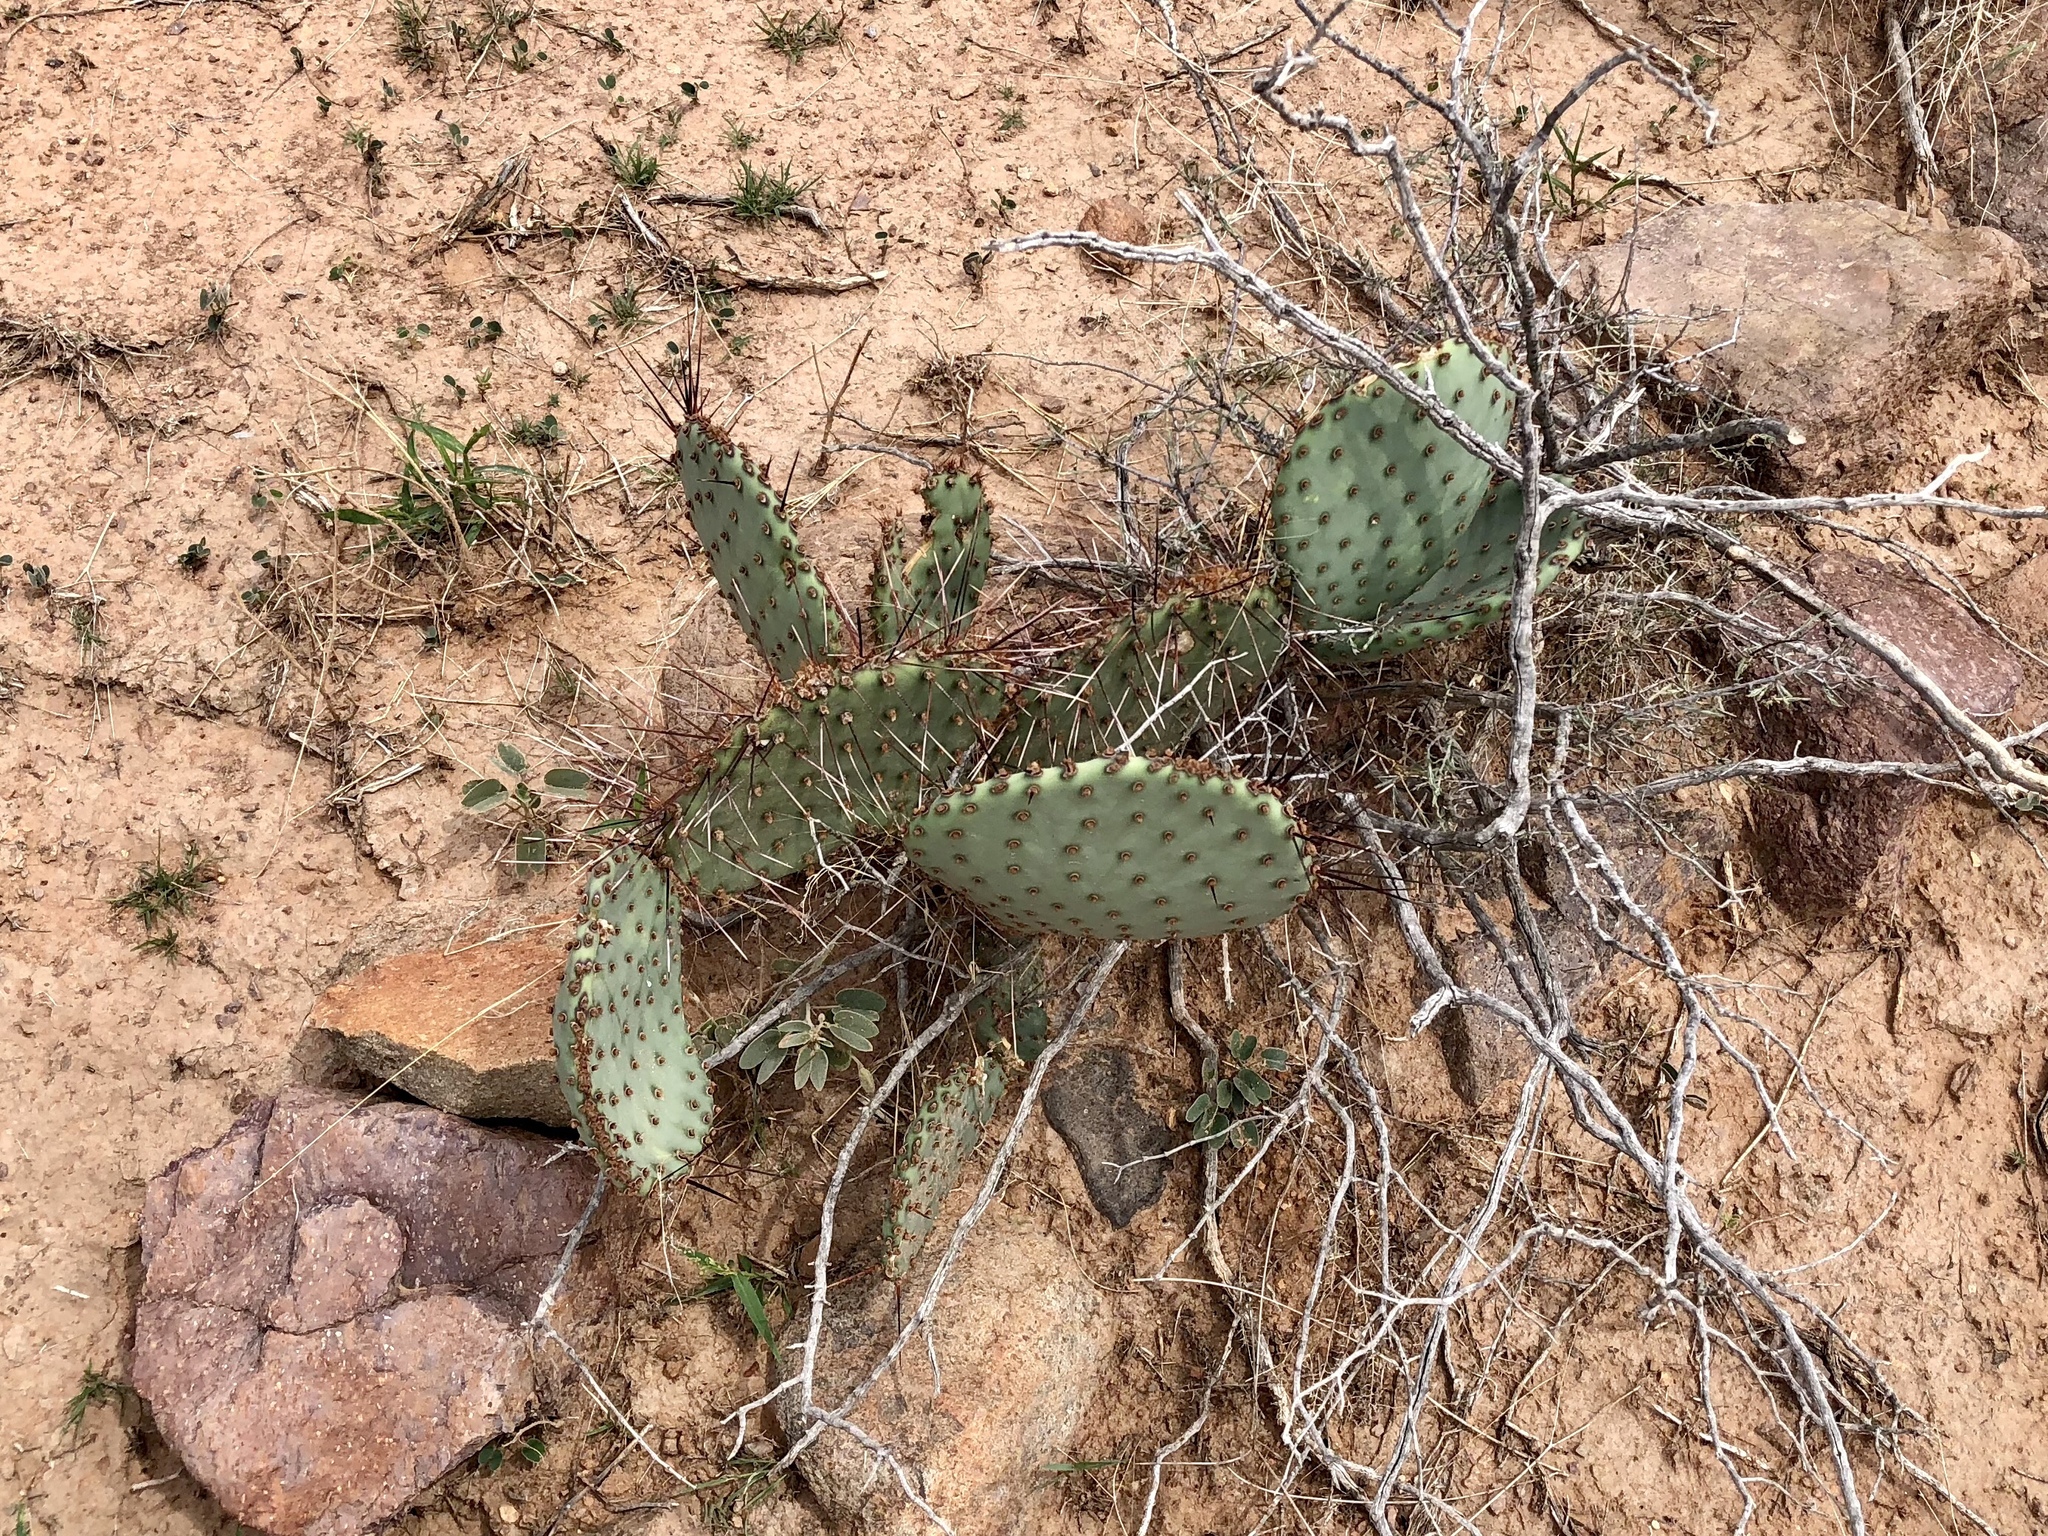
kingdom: Plantae
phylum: Tracheophyta
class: Magnoliopsida
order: Caryophyllales
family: Cactaceae
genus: Opuntia
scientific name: Opuntia macrocentra
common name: Purple prickly-pear
